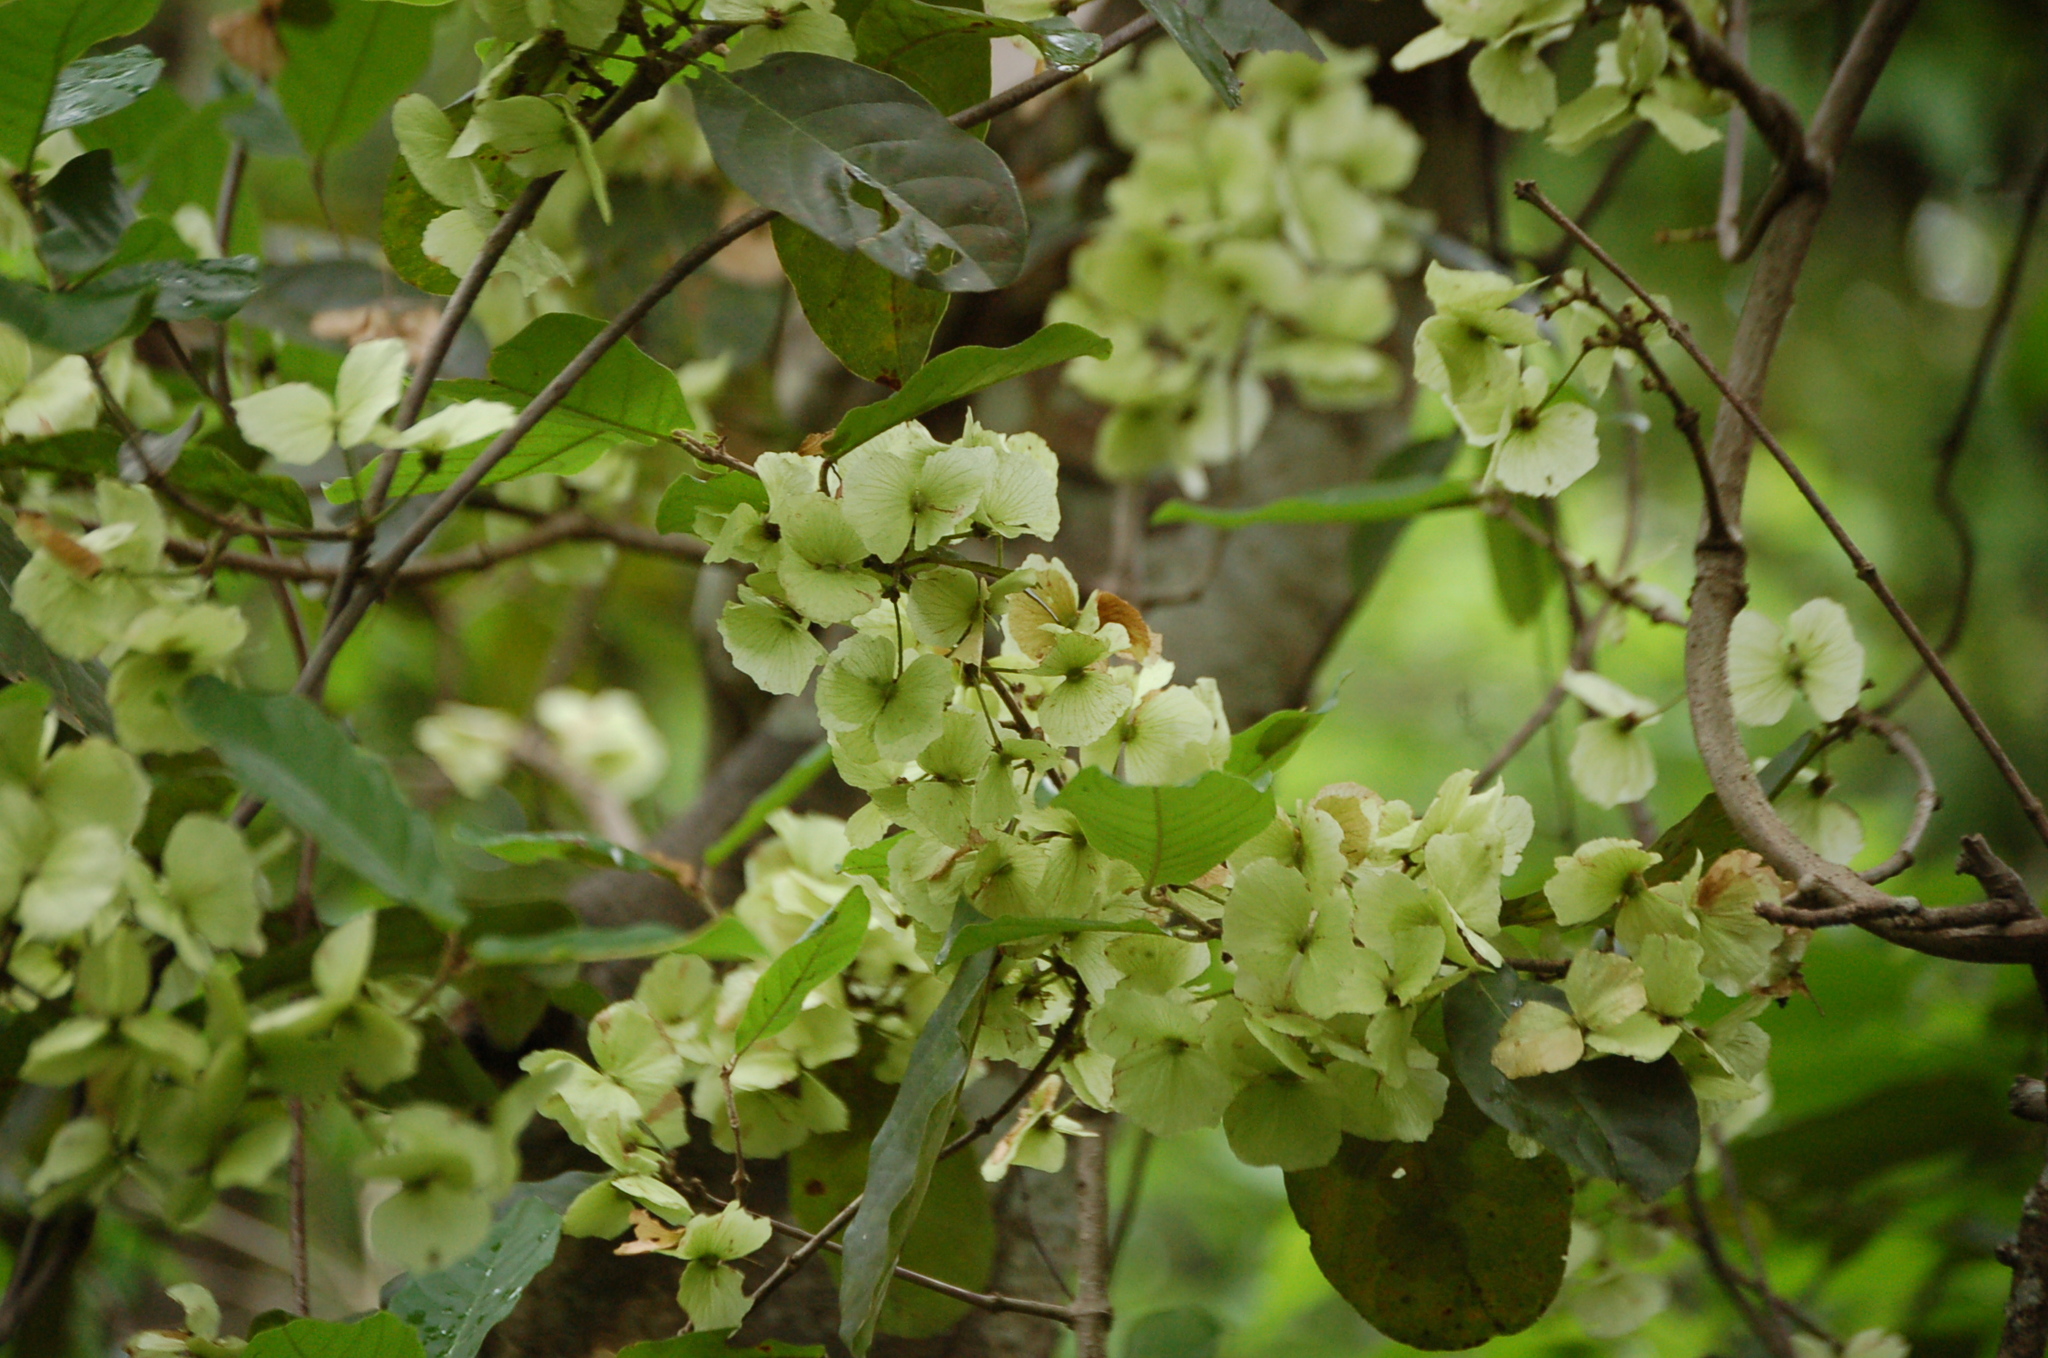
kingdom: Plantae
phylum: Tracheophyta
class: Magnoliopsida
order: Malpighiales
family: Malpighiaceae
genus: Hiraea
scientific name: Hiraea reclinata
